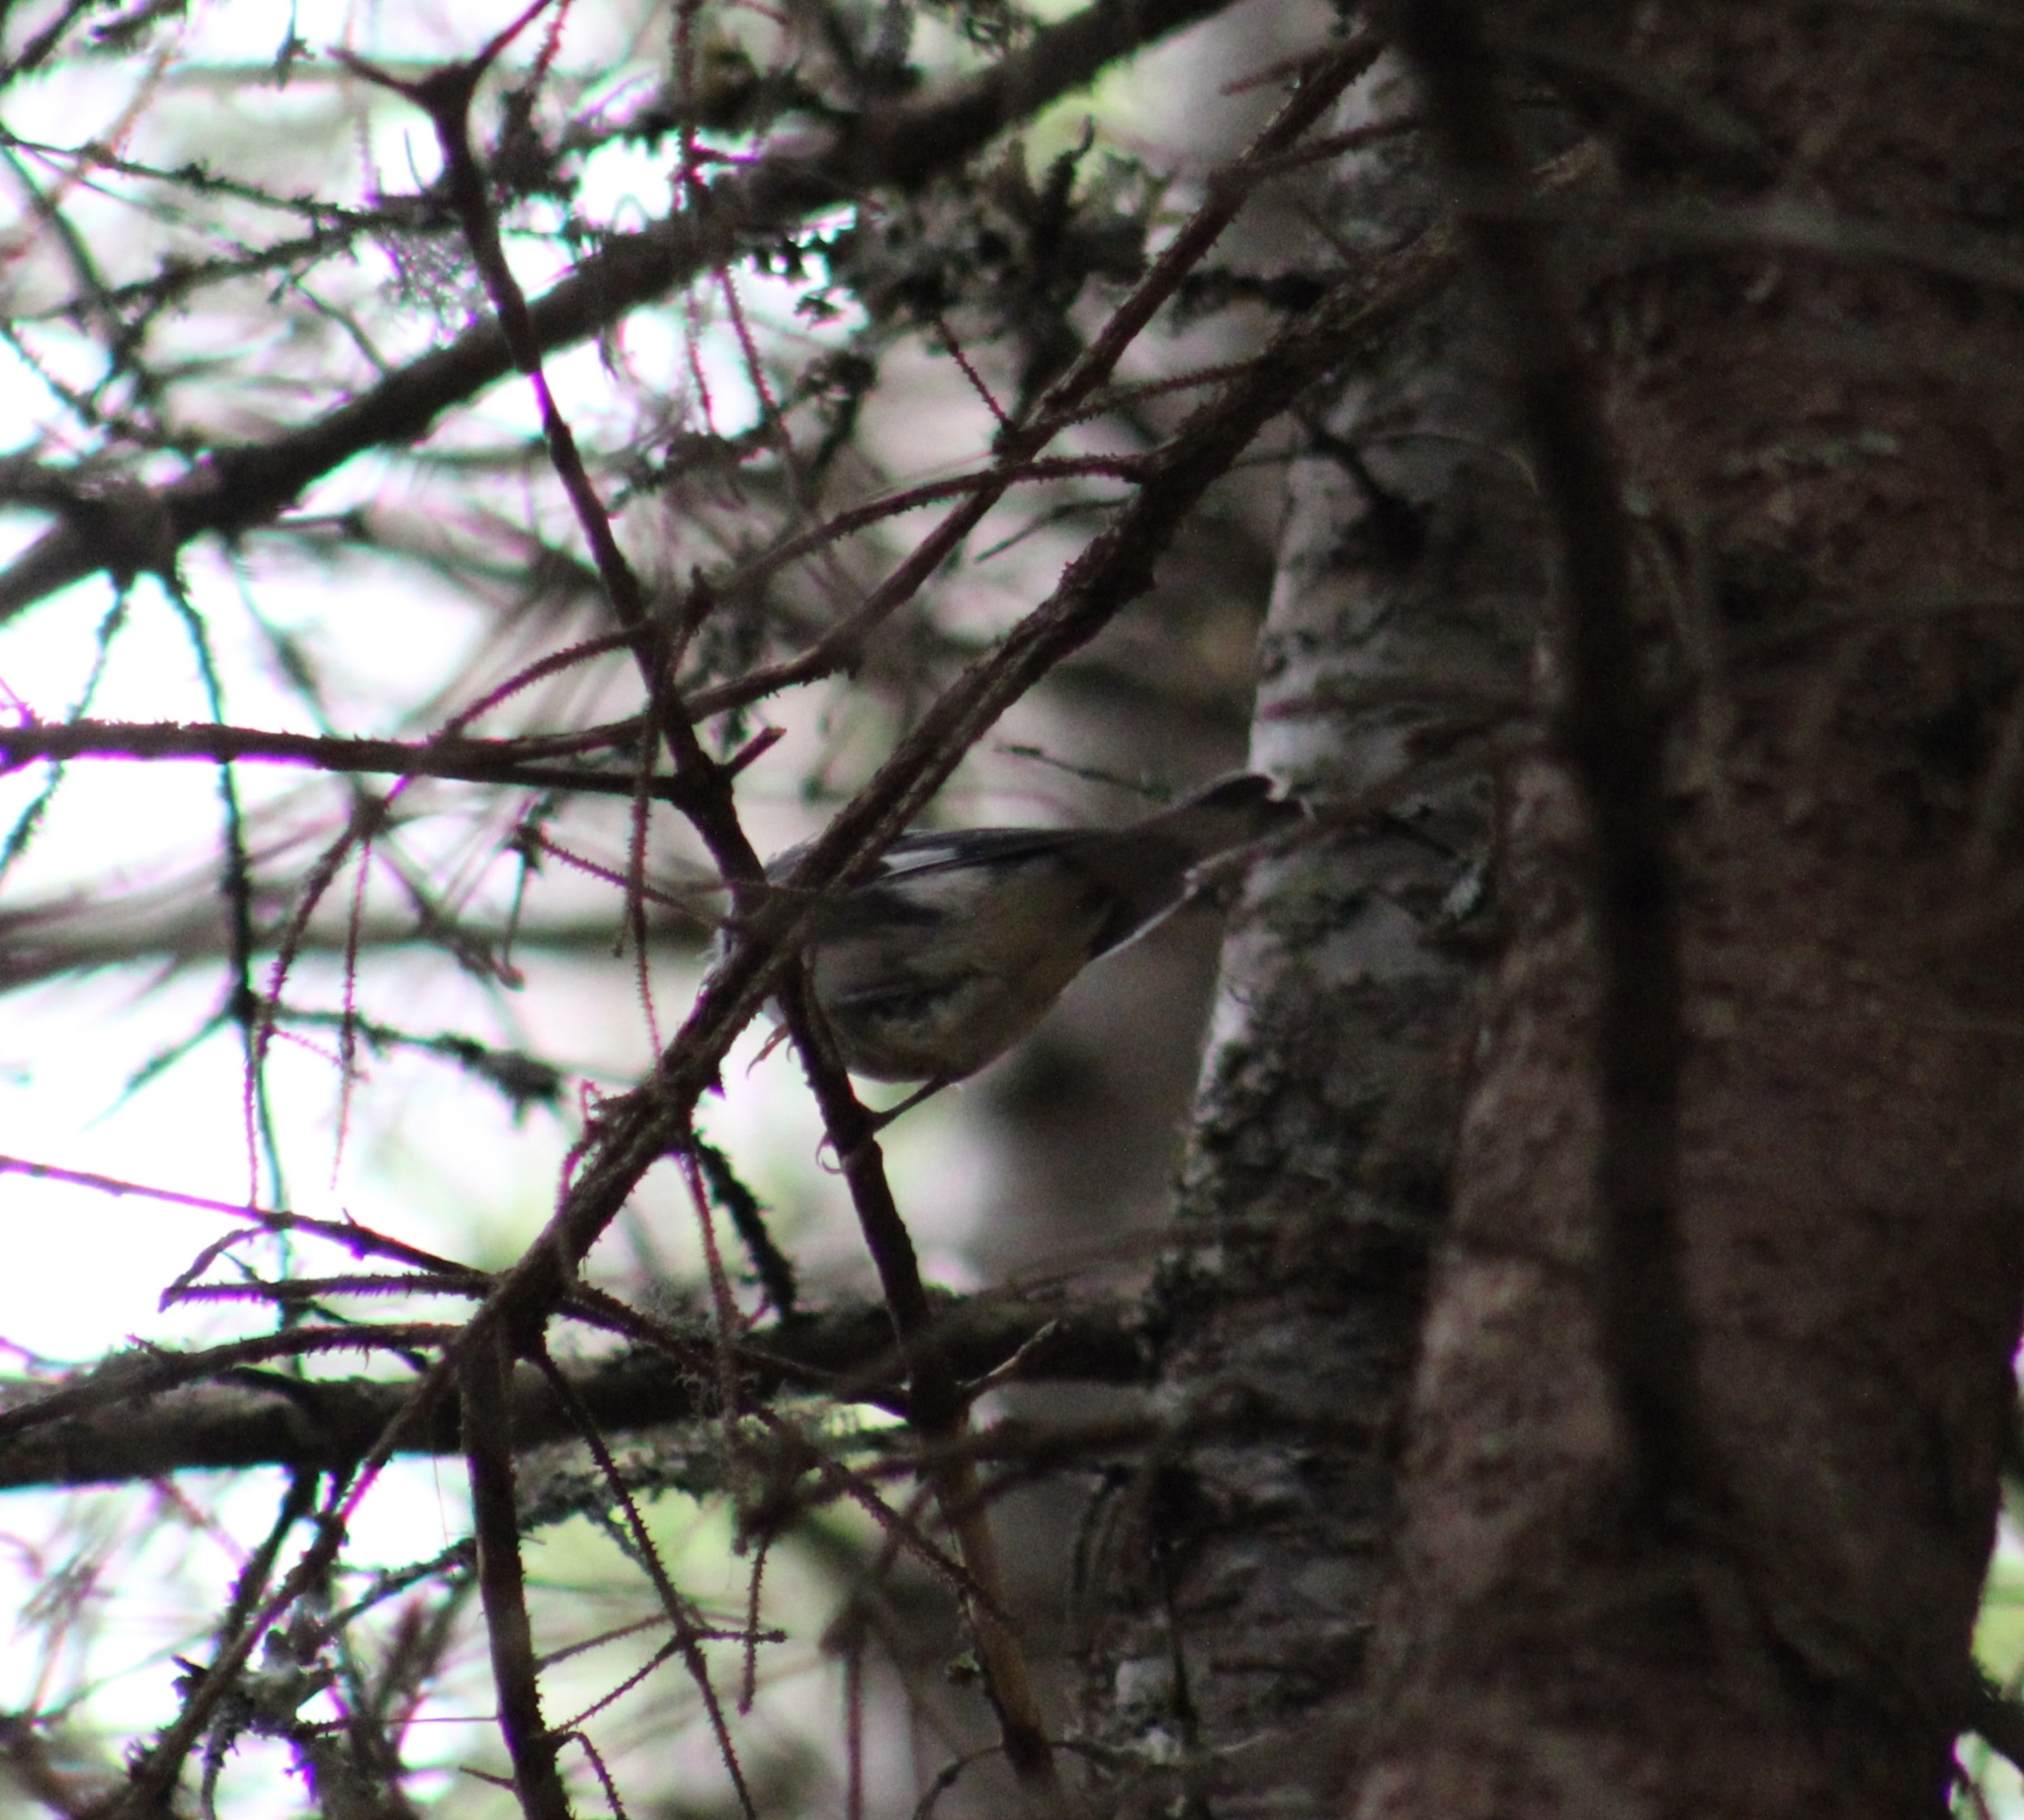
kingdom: Animalia
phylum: Chordata
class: Aves
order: Passeriformes
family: Parulidae
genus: Setophaga
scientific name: Setophaga caerulescens
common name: Black-throated blue warbler
